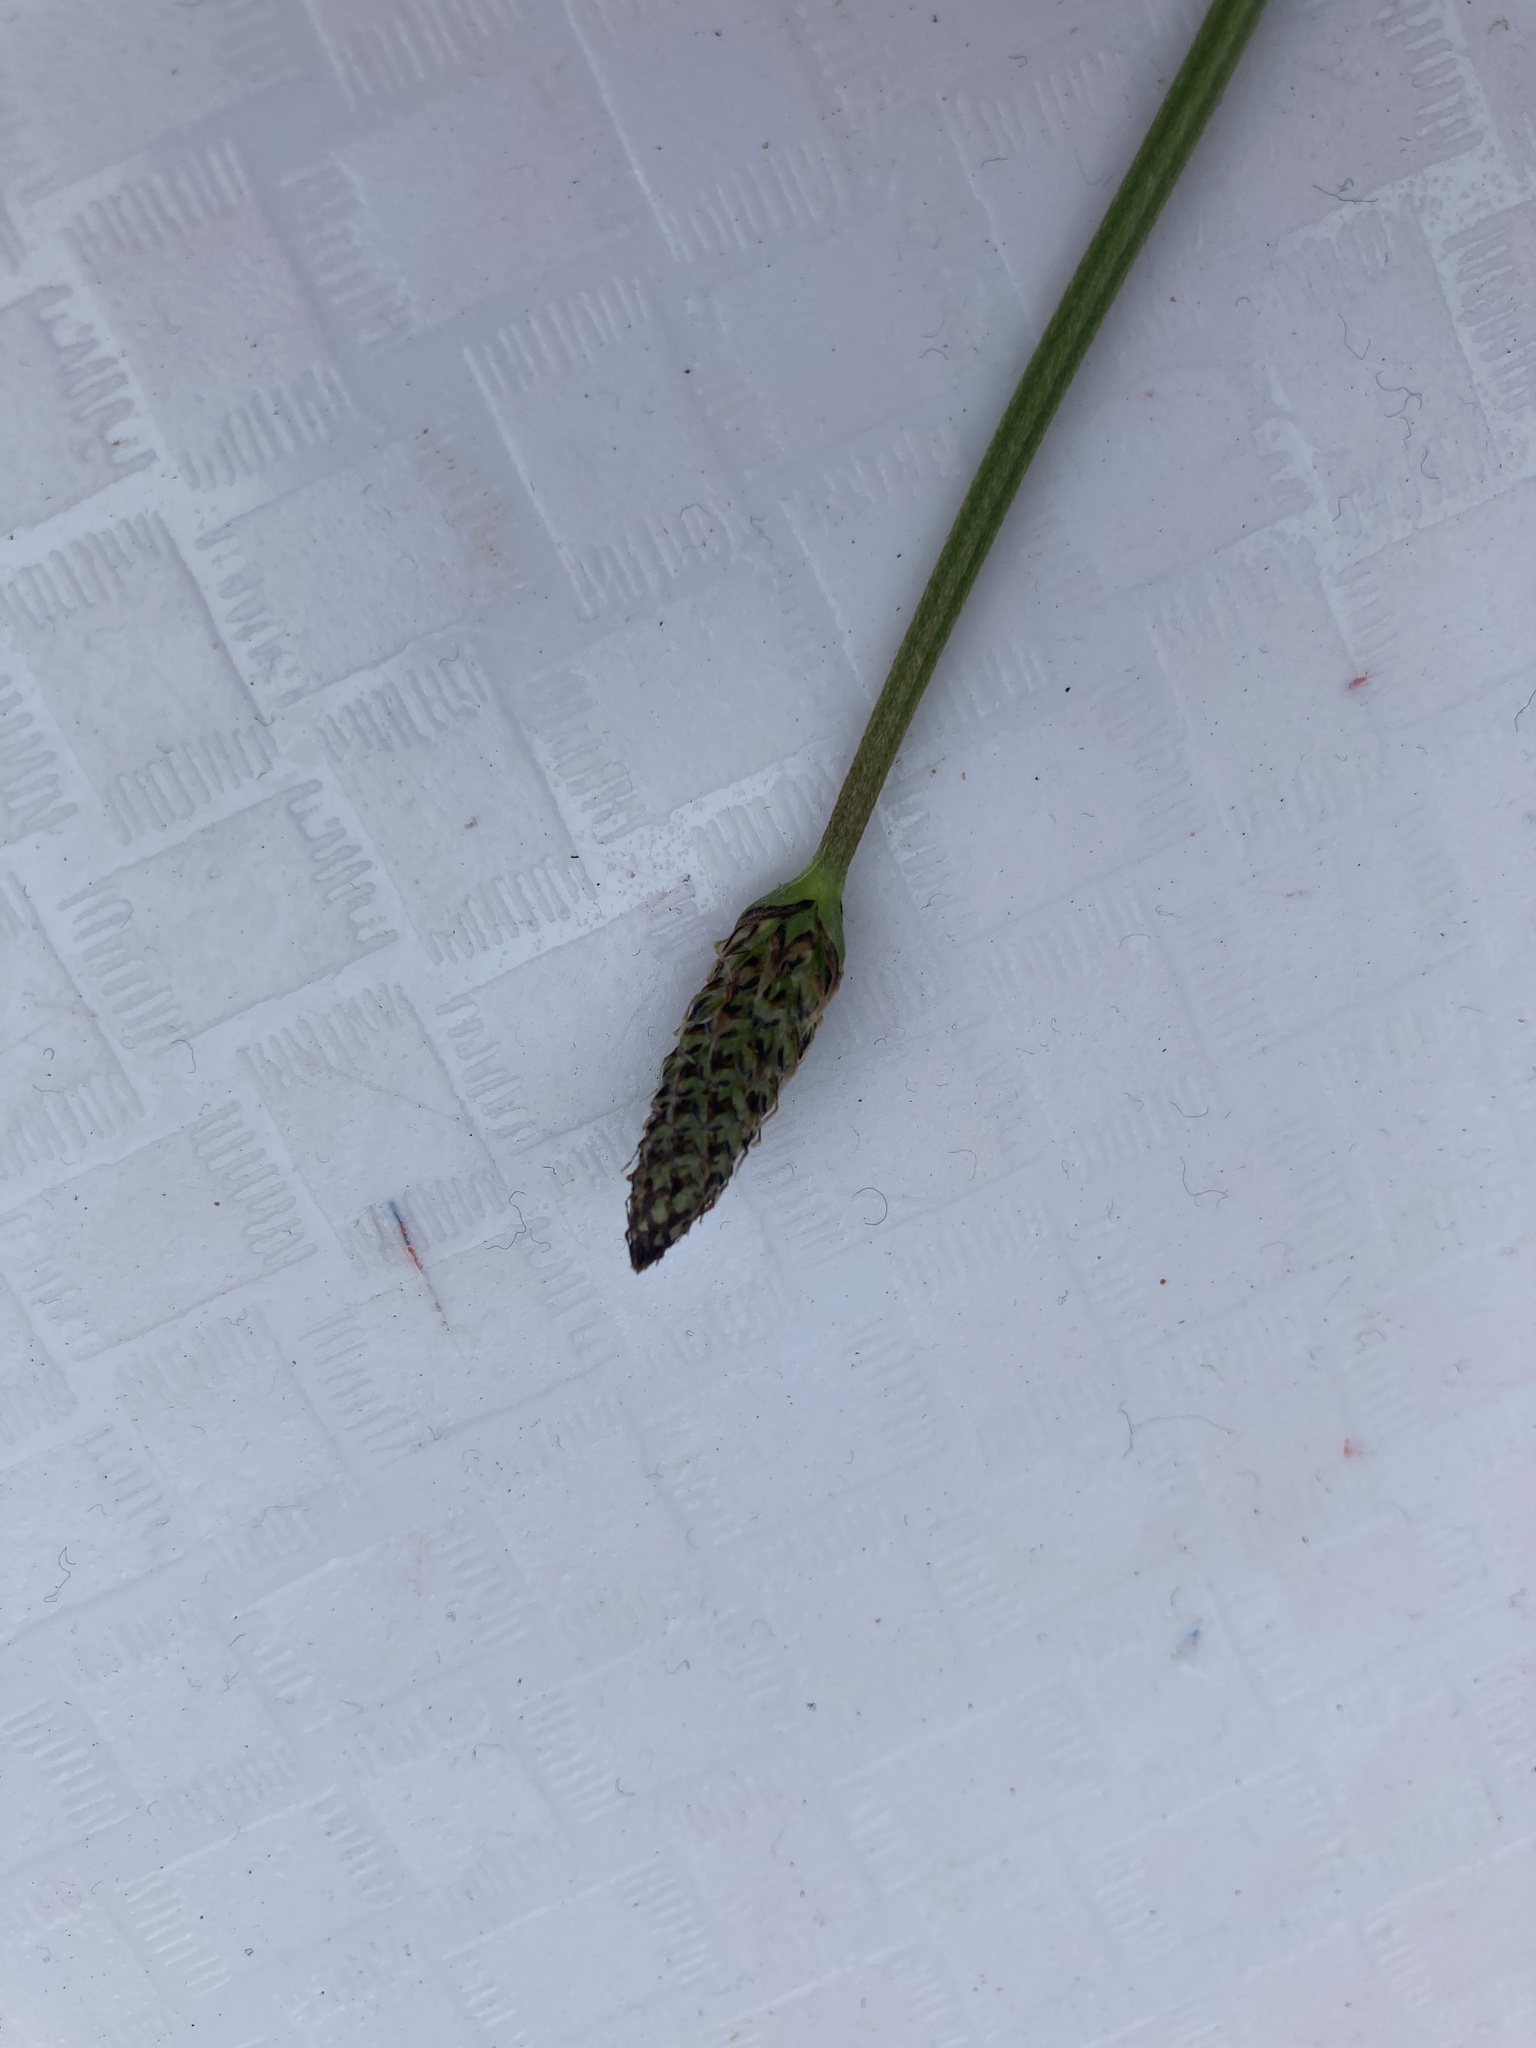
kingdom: Plantae
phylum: Tracheophyta
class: Magnoliopsida
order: Lamiales
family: Plantaginaceae
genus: Plantago
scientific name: Plantago lanceolata
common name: Ribwort plantain
